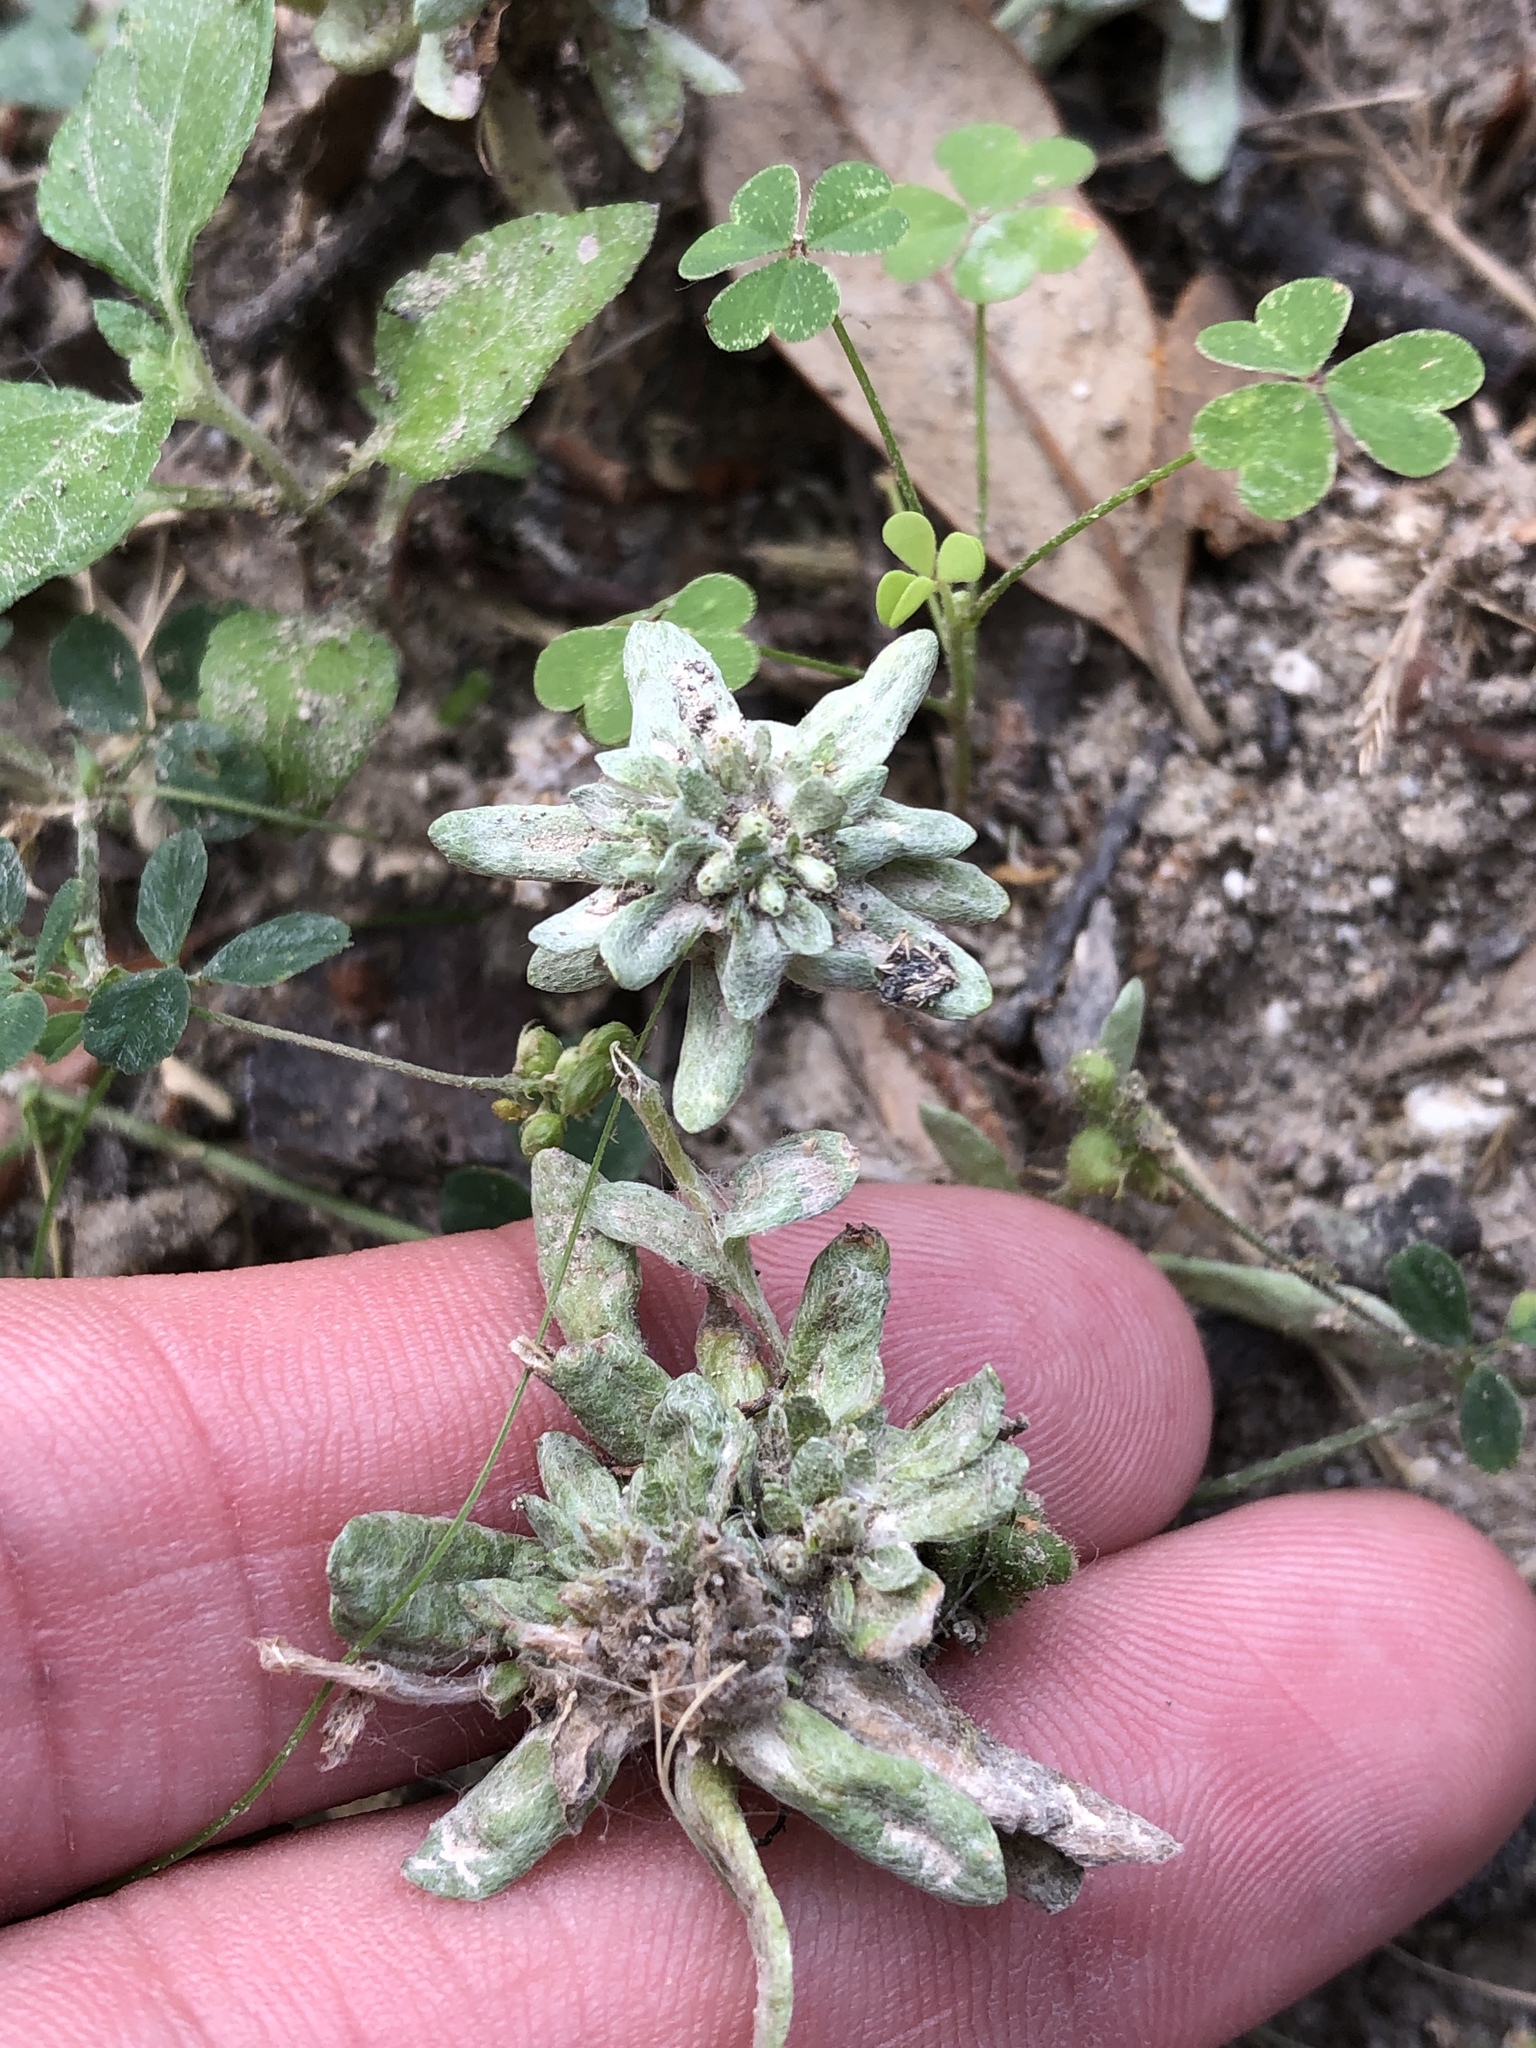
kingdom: Plantae
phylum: Tracheophyta
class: Magnoliopsida
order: Asterales
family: Asteraceae
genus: Diaperia
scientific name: Diaperia prolifera
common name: Big-head rabbit-tobacco
